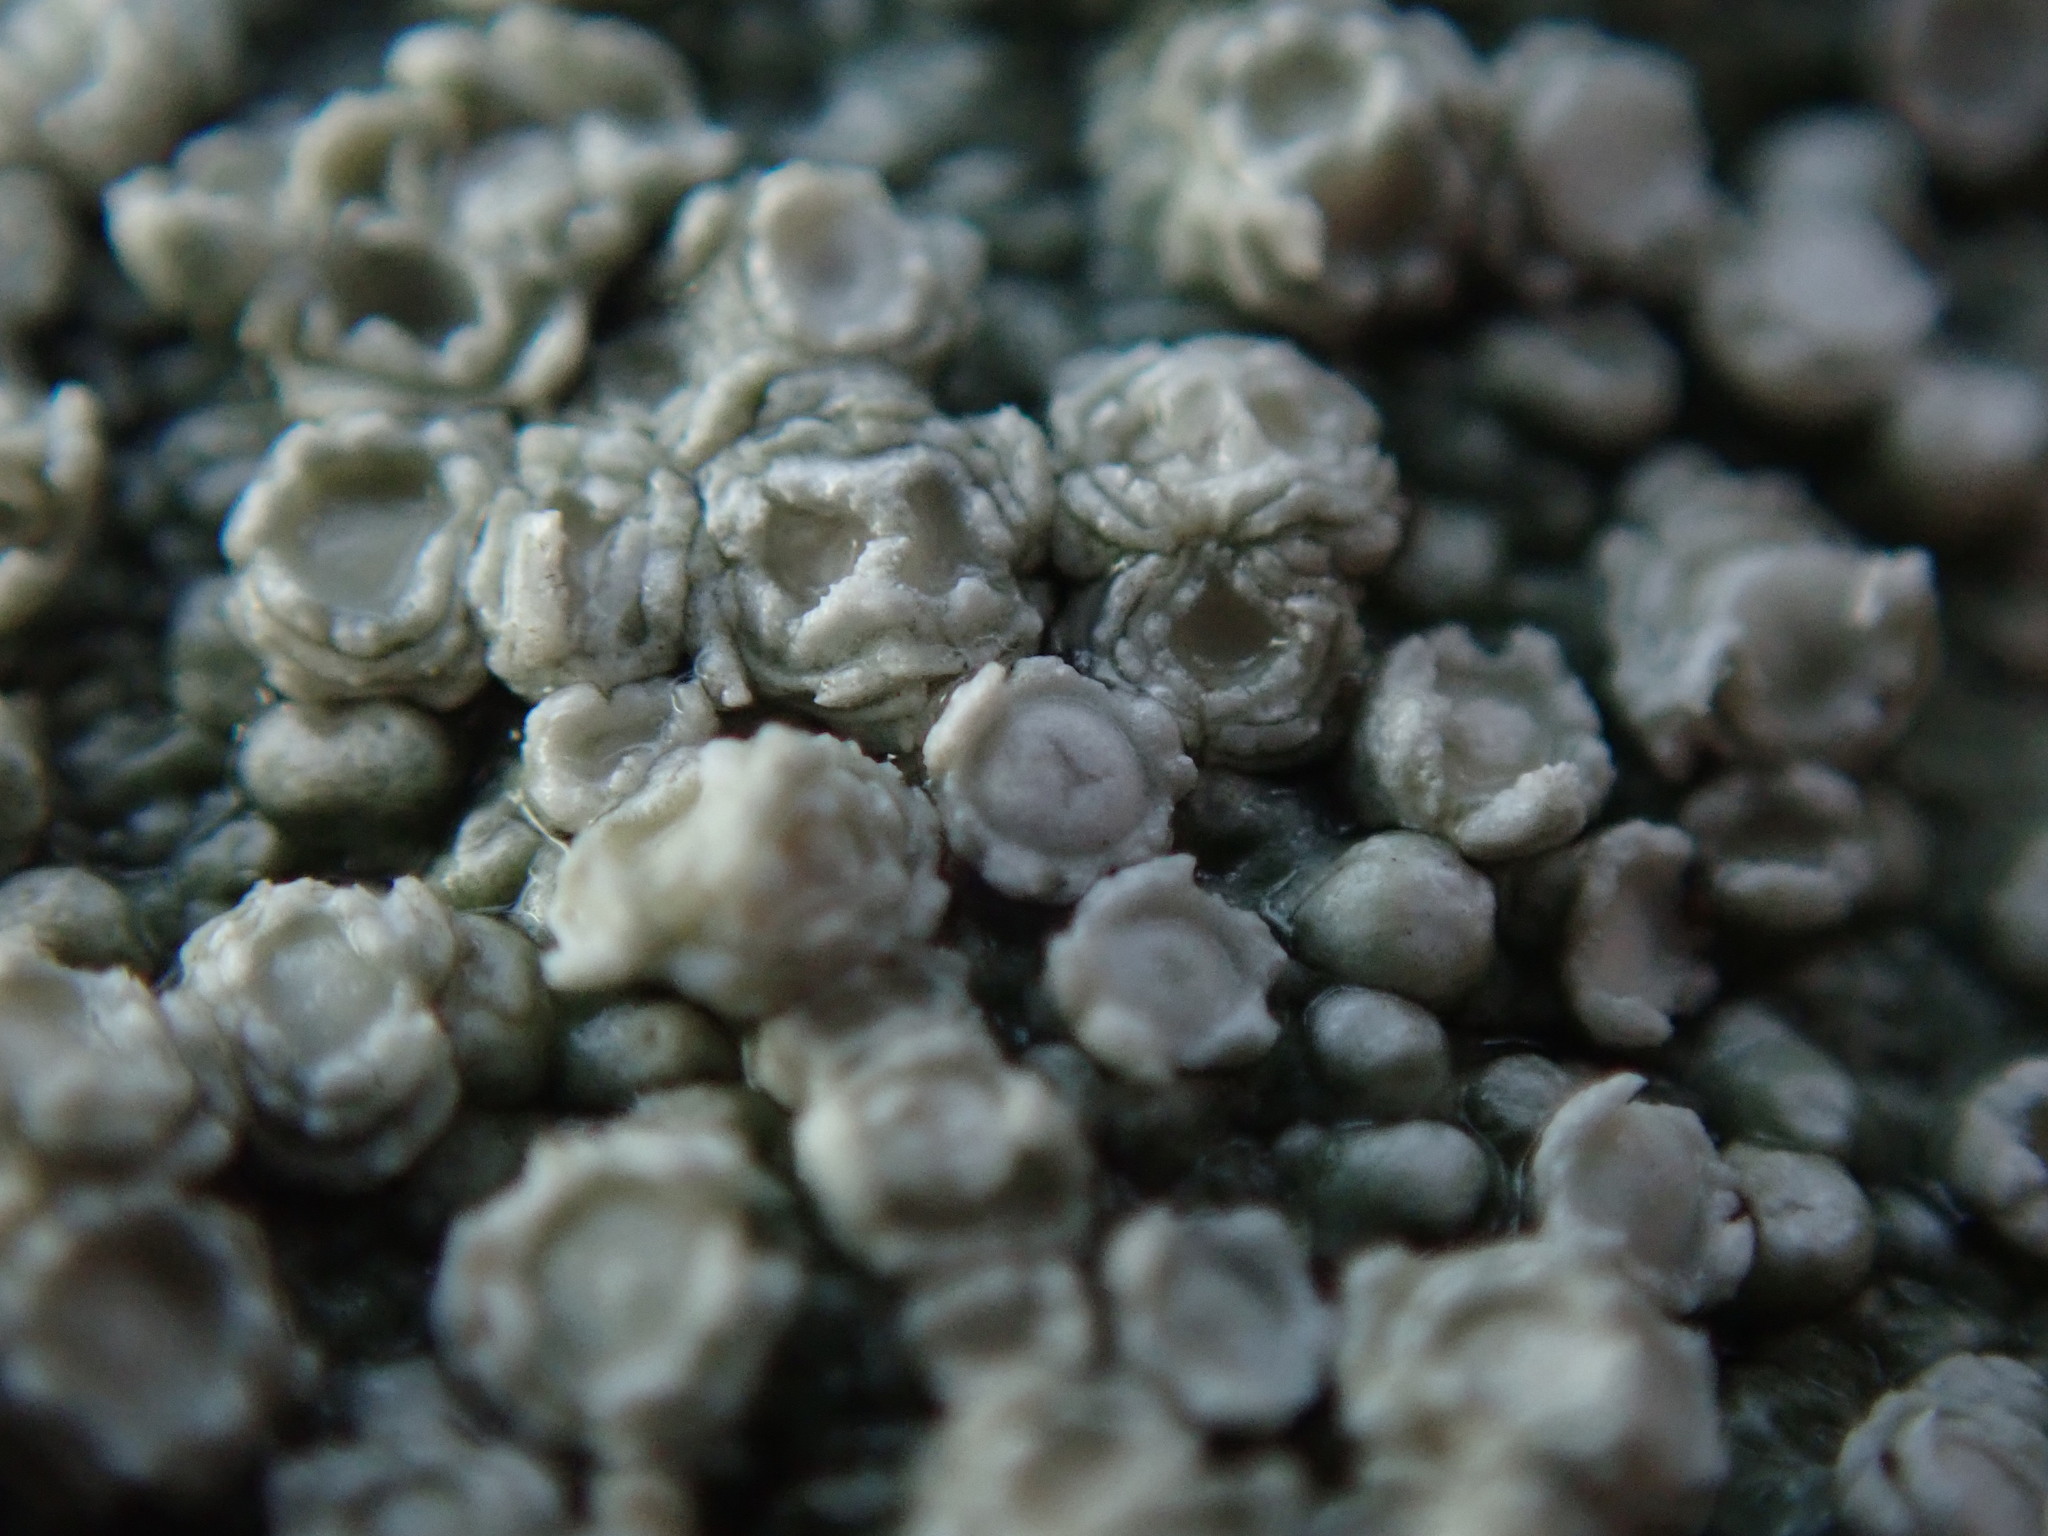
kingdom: Fungi
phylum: Ascomycota
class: Lecanoromycetes
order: Pertusariales
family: Pertusariaceae
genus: Pertusaria
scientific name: Pertusaria subambigens
